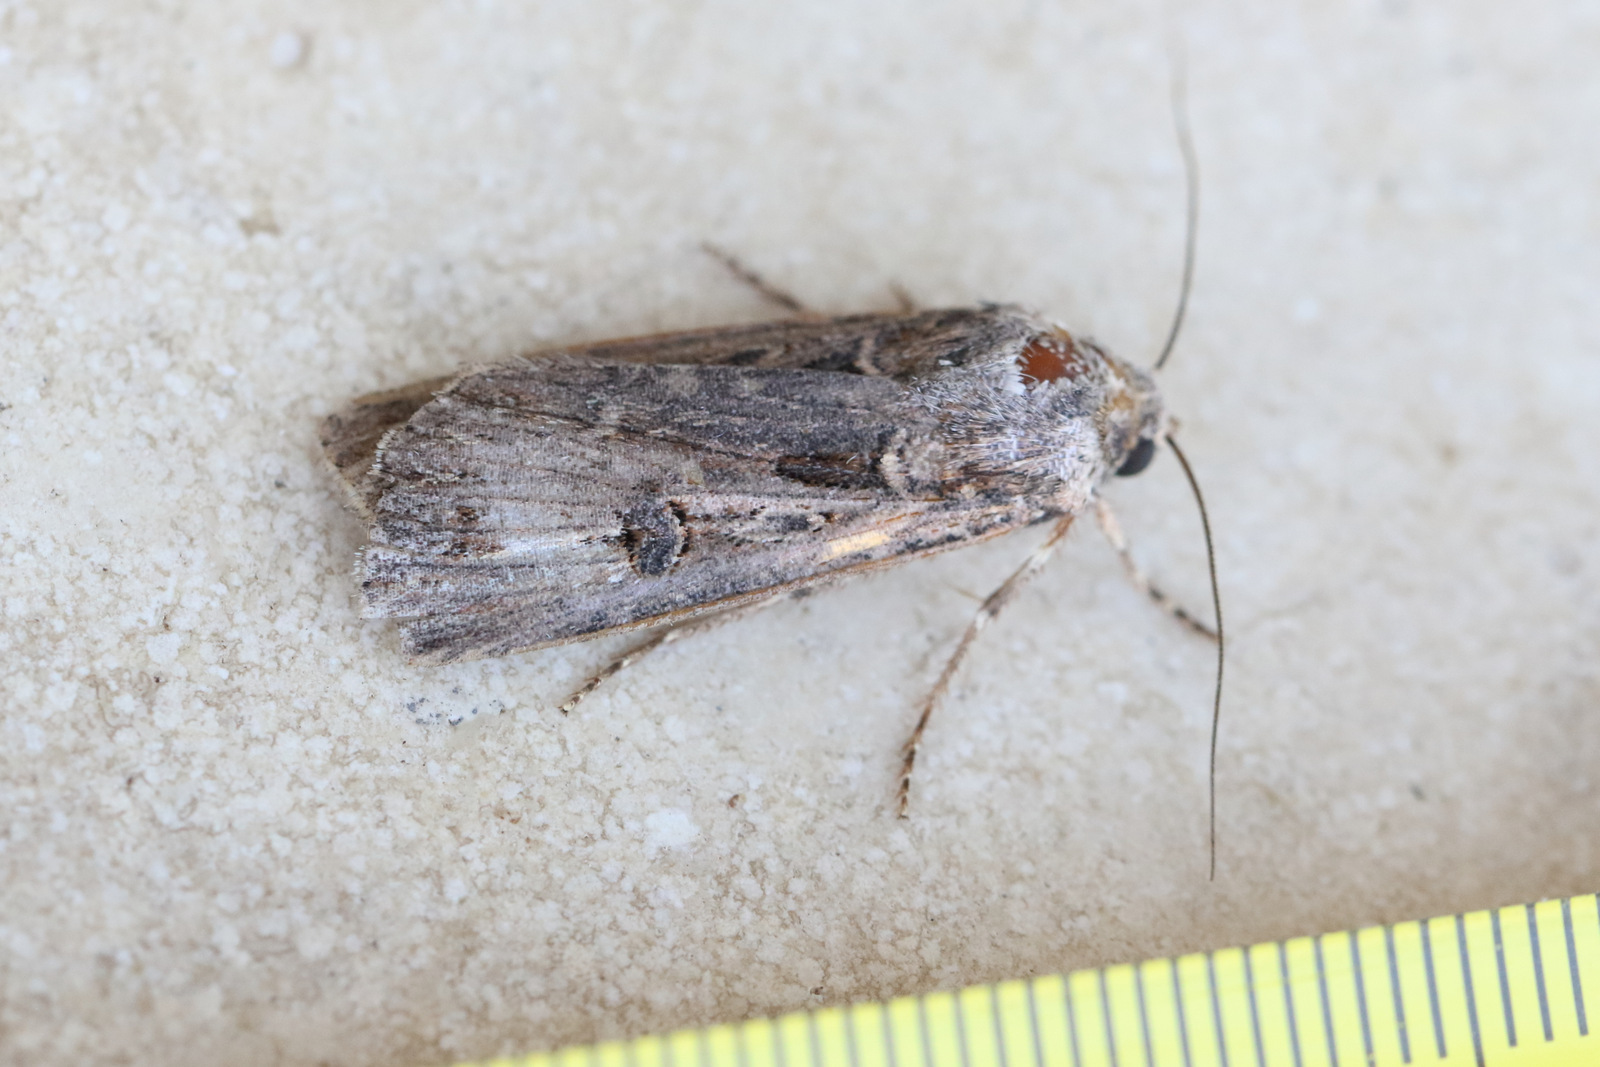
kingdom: Animalia
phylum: Arthropoda
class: Insecta
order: Lepidoptera
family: Noctuidae
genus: Agrotis
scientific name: Agrotis munda
